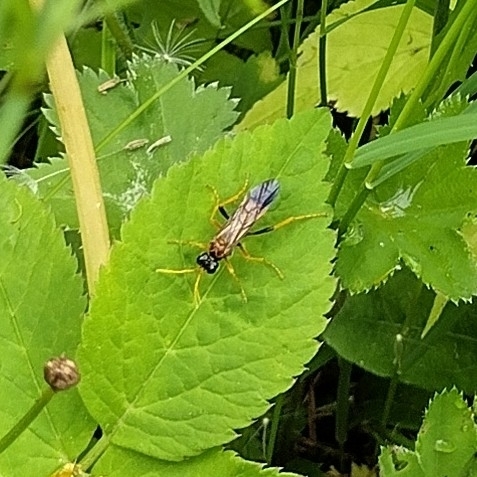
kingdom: Animalia
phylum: Arthropoda
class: Insecta
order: Hymenoptera
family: Tenthredinidae
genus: Tenthredo
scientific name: Tenthredo campestris
